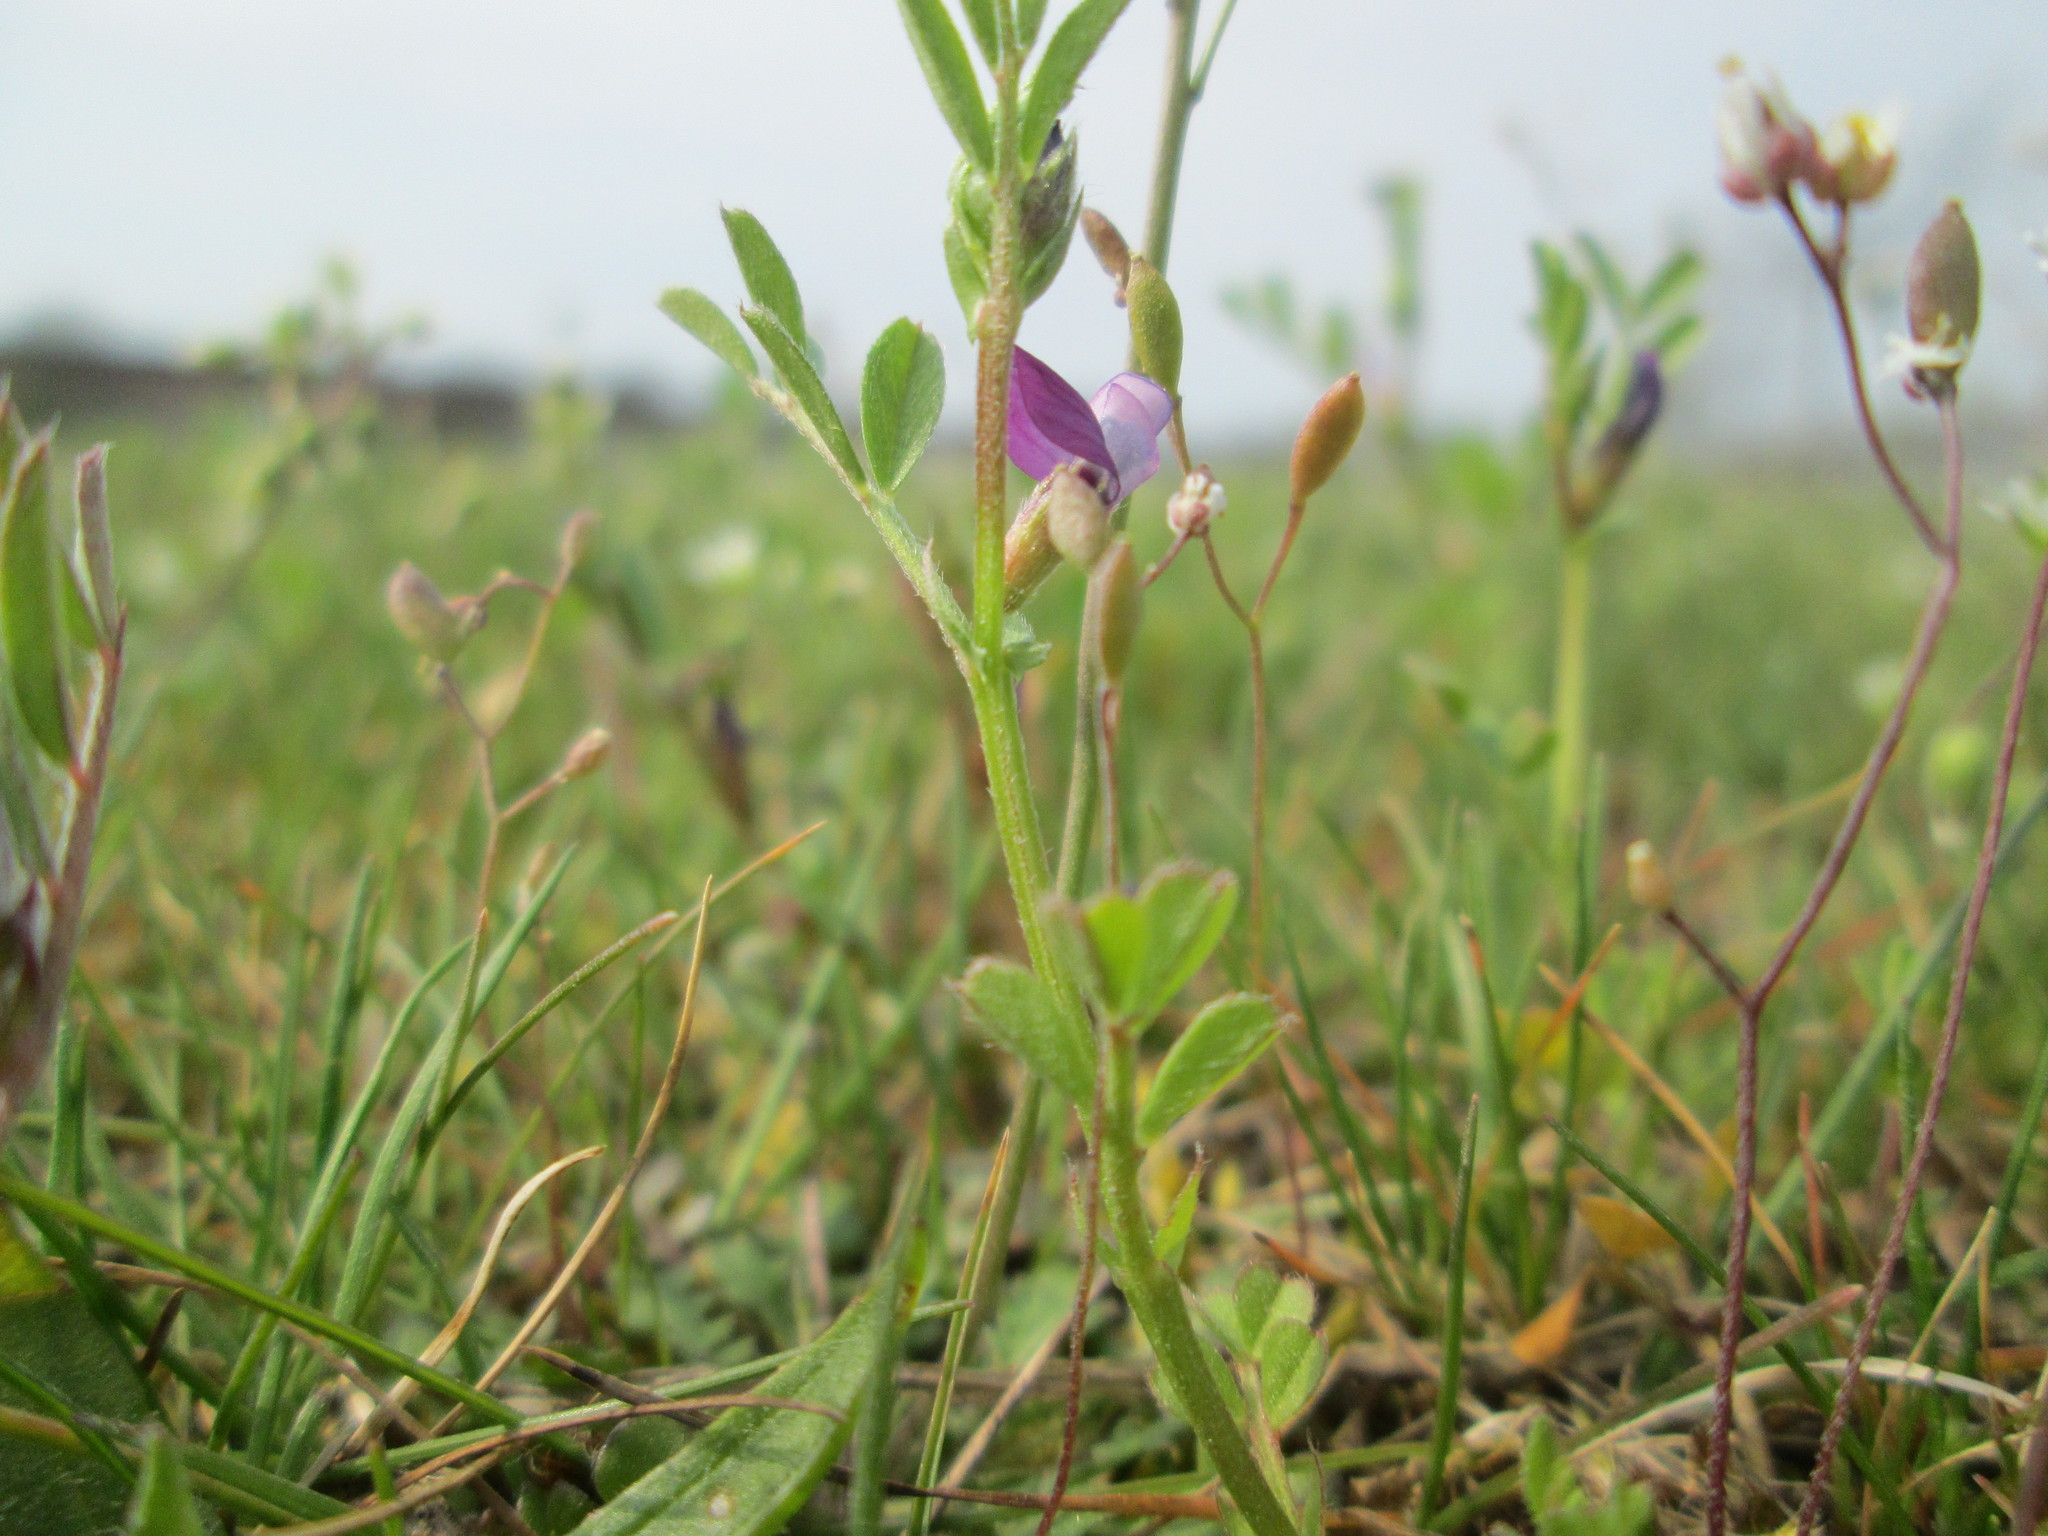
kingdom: Plantae
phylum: Tracheophyta
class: Magnoliopsida
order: Fabales
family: Fabaceae
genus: Vicia
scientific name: Vicia lathyroides
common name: Spring vetch
